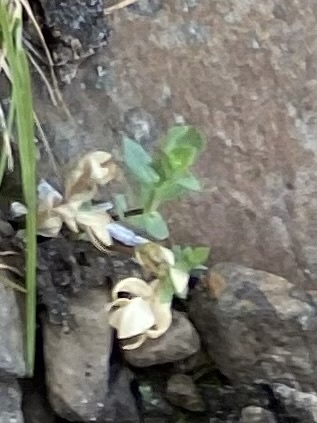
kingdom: Plantae
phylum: Tracheophyta
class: Magnoliopsida
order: Caryophyllales
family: Caryophyllaceae
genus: Stellaria
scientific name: Stellaria longipes
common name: Goldie's starwort
